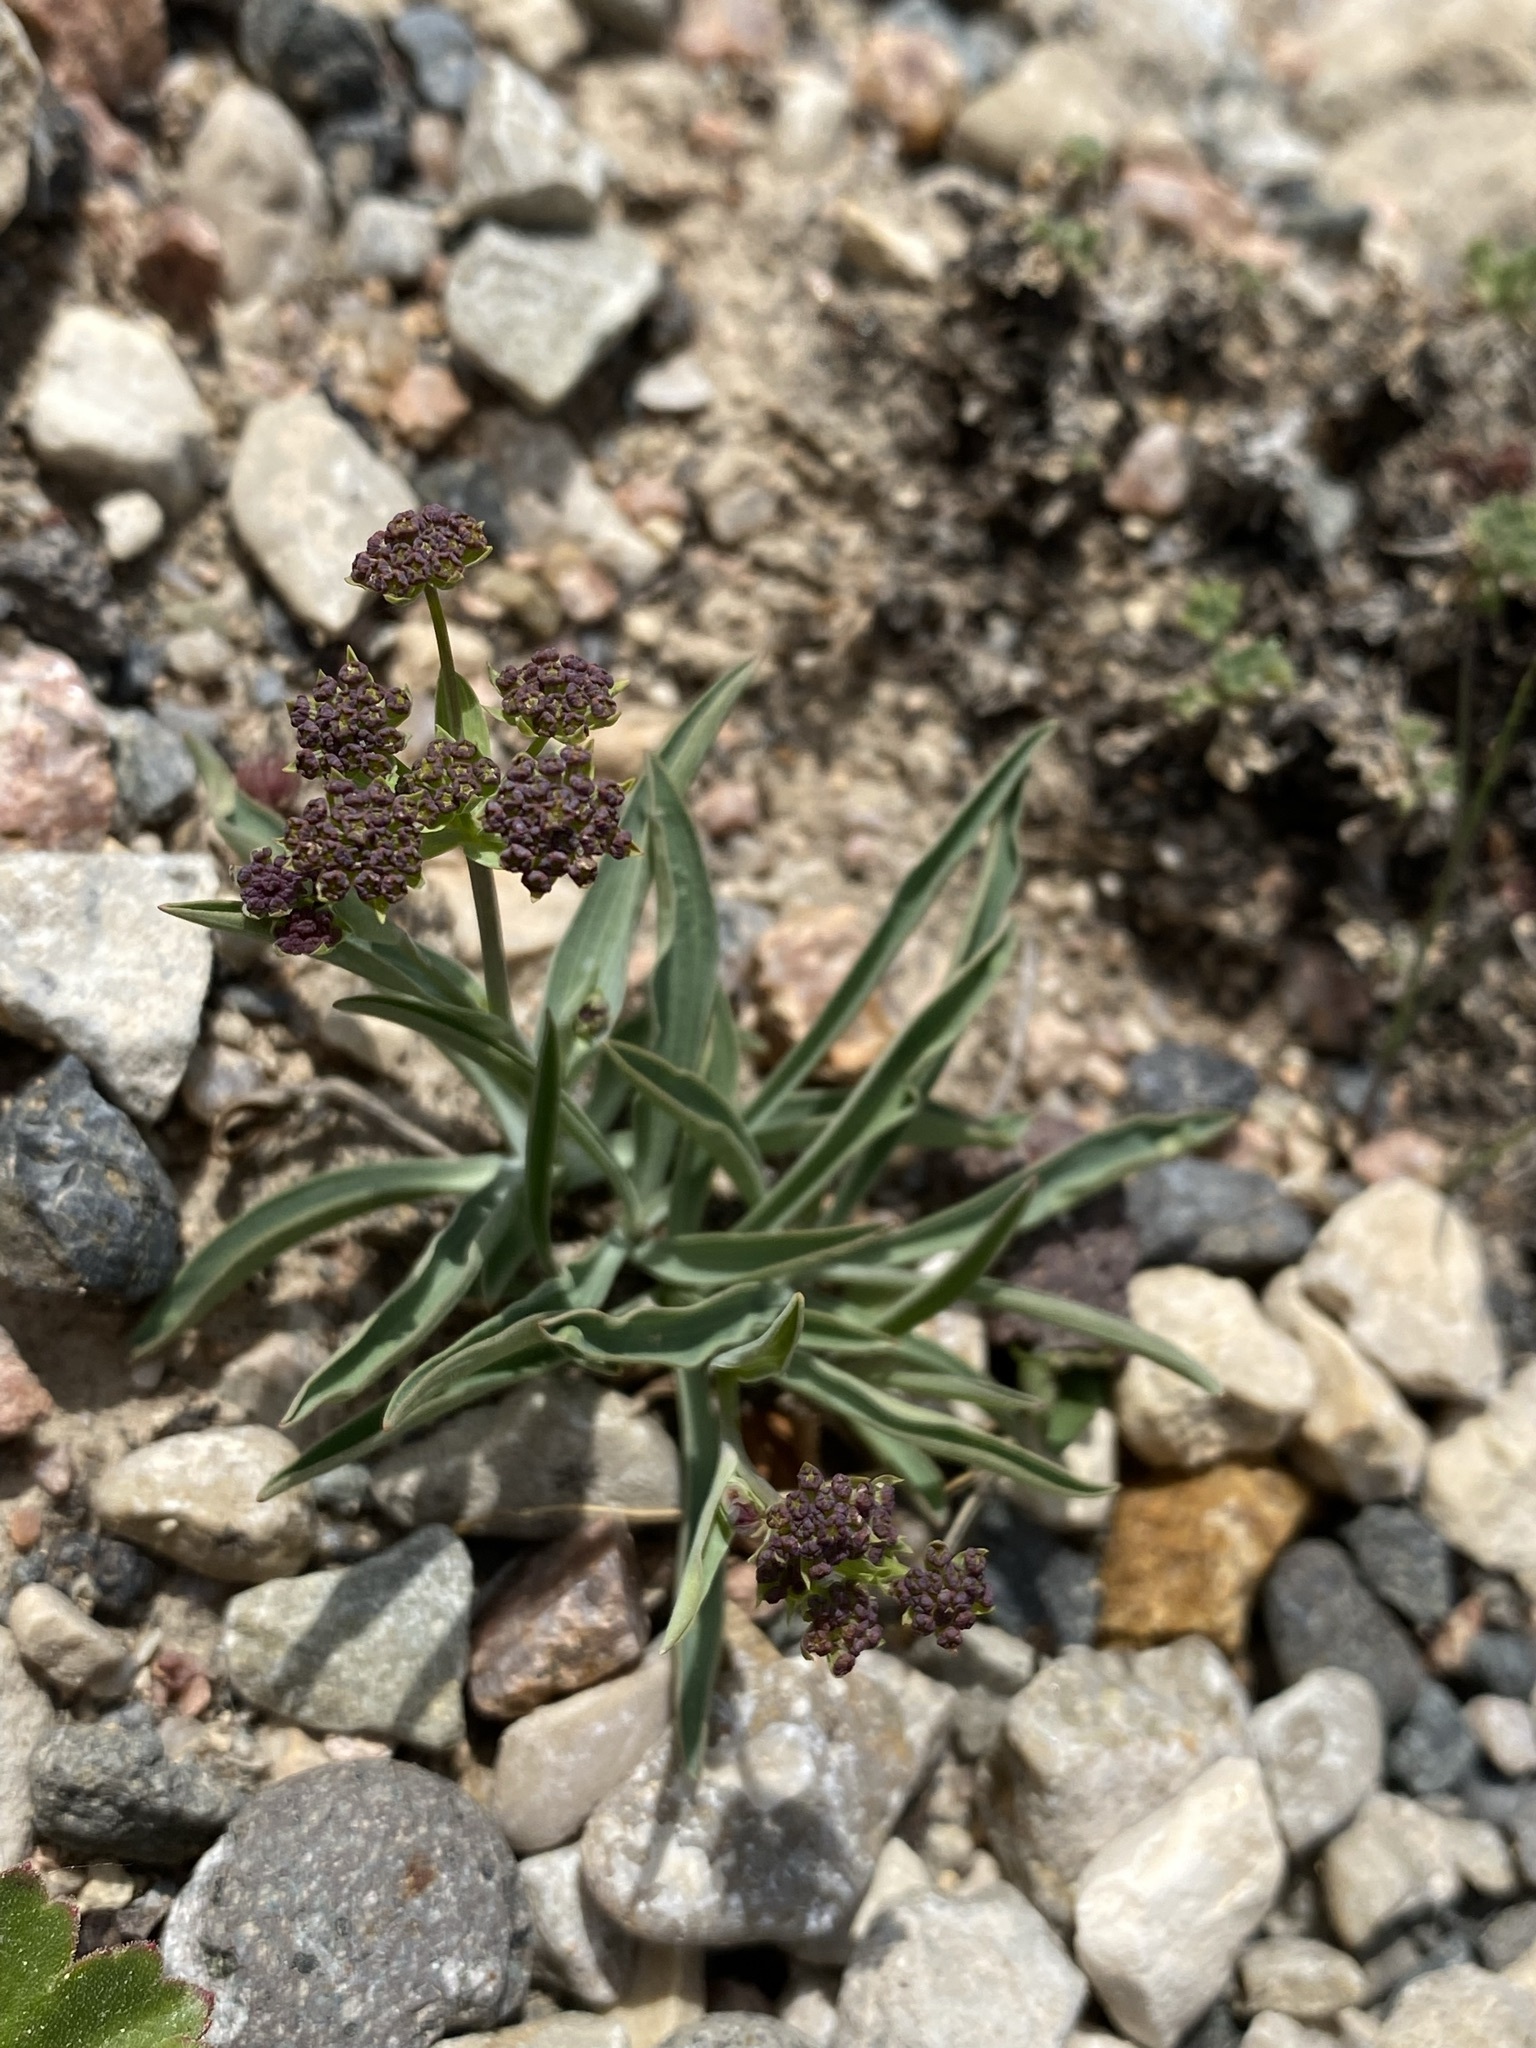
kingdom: Plantae
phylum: Tracheophyta
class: Magnoliopsida
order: Apiales
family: Apiaceae
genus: Bupleurum
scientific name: Bupleurum americanum
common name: American thoroughwax
